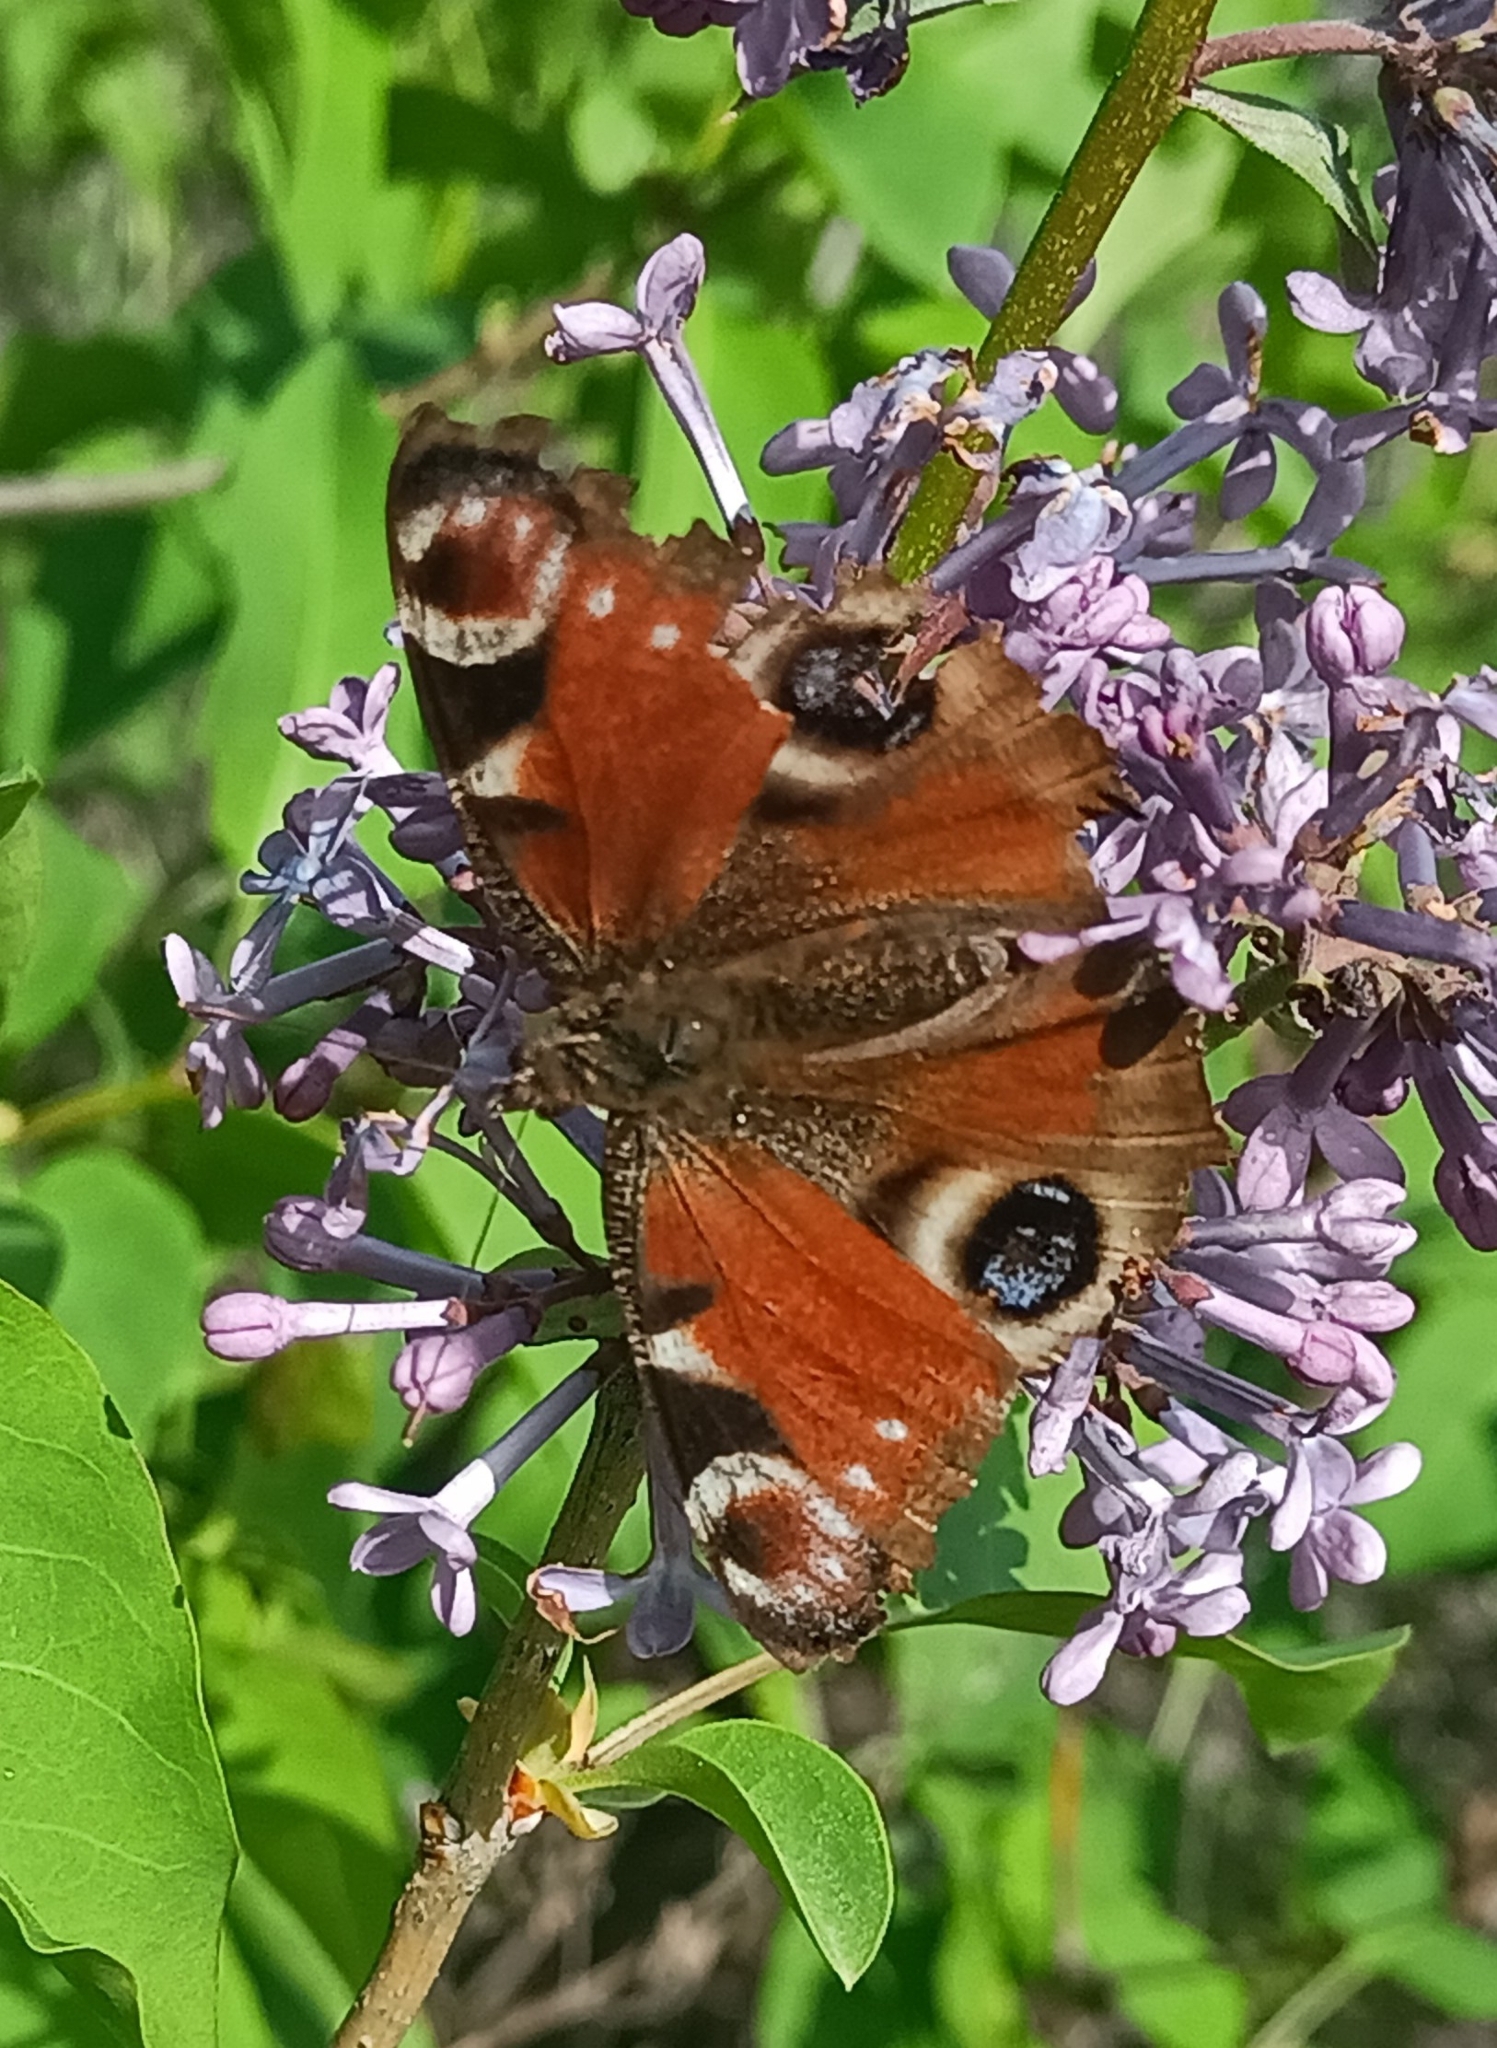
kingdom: Animalia
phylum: Arthropoda
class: Insecta
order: Lepidoptera
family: Nymphalidae
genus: Aglais
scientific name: Aglais io
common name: Peacock
